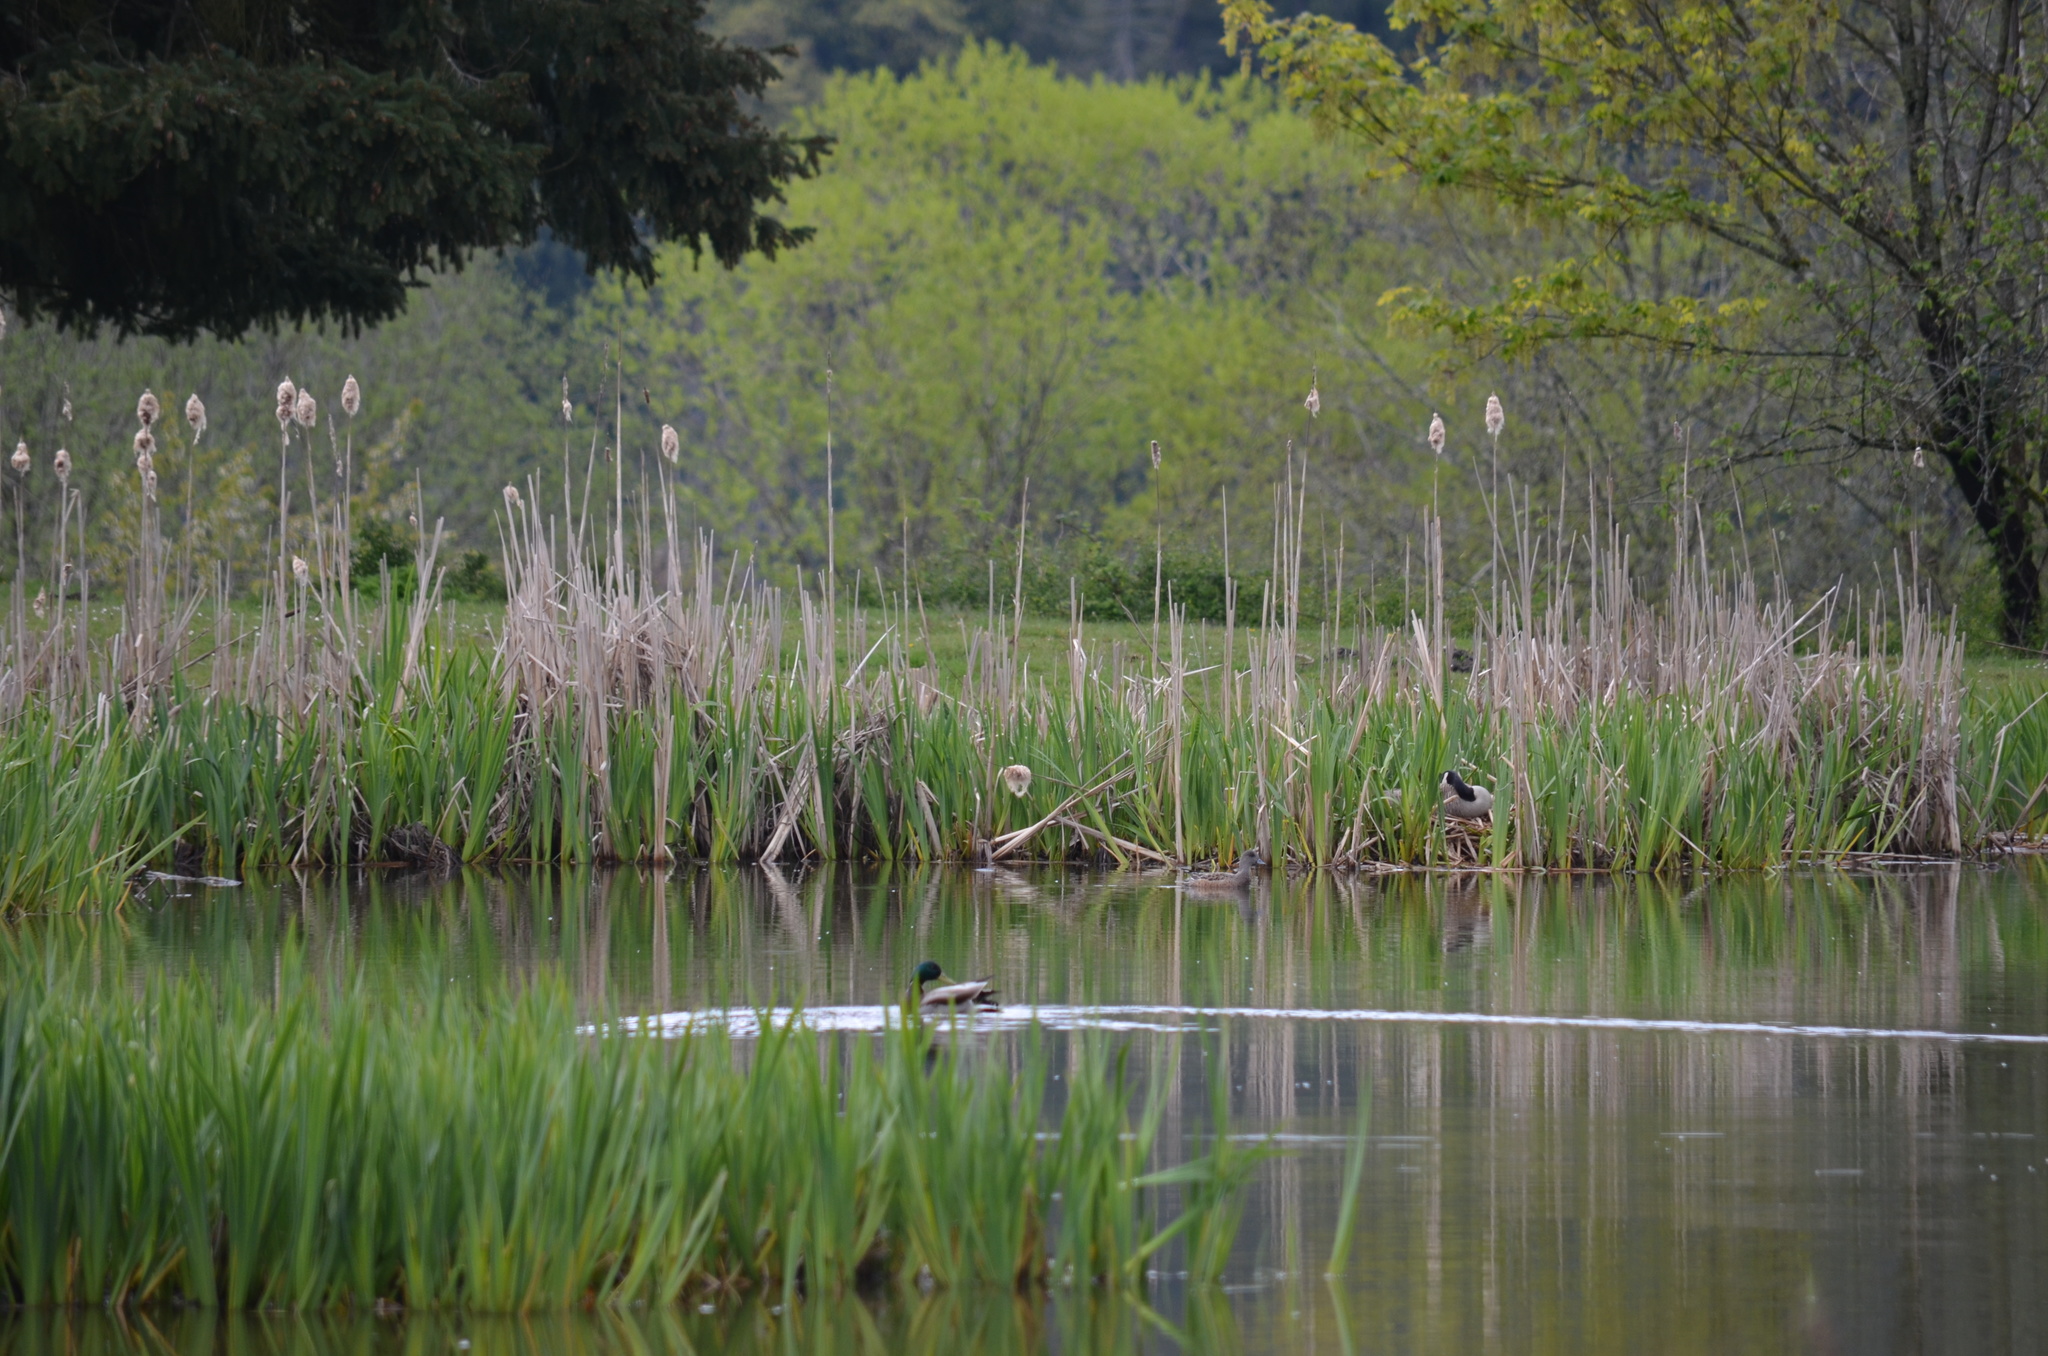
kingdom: Animalia
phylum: Chordata
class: Aves
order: Anseriformes
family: Anatidae
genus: Mareca
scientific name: Mareca americana
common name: American wigeon
